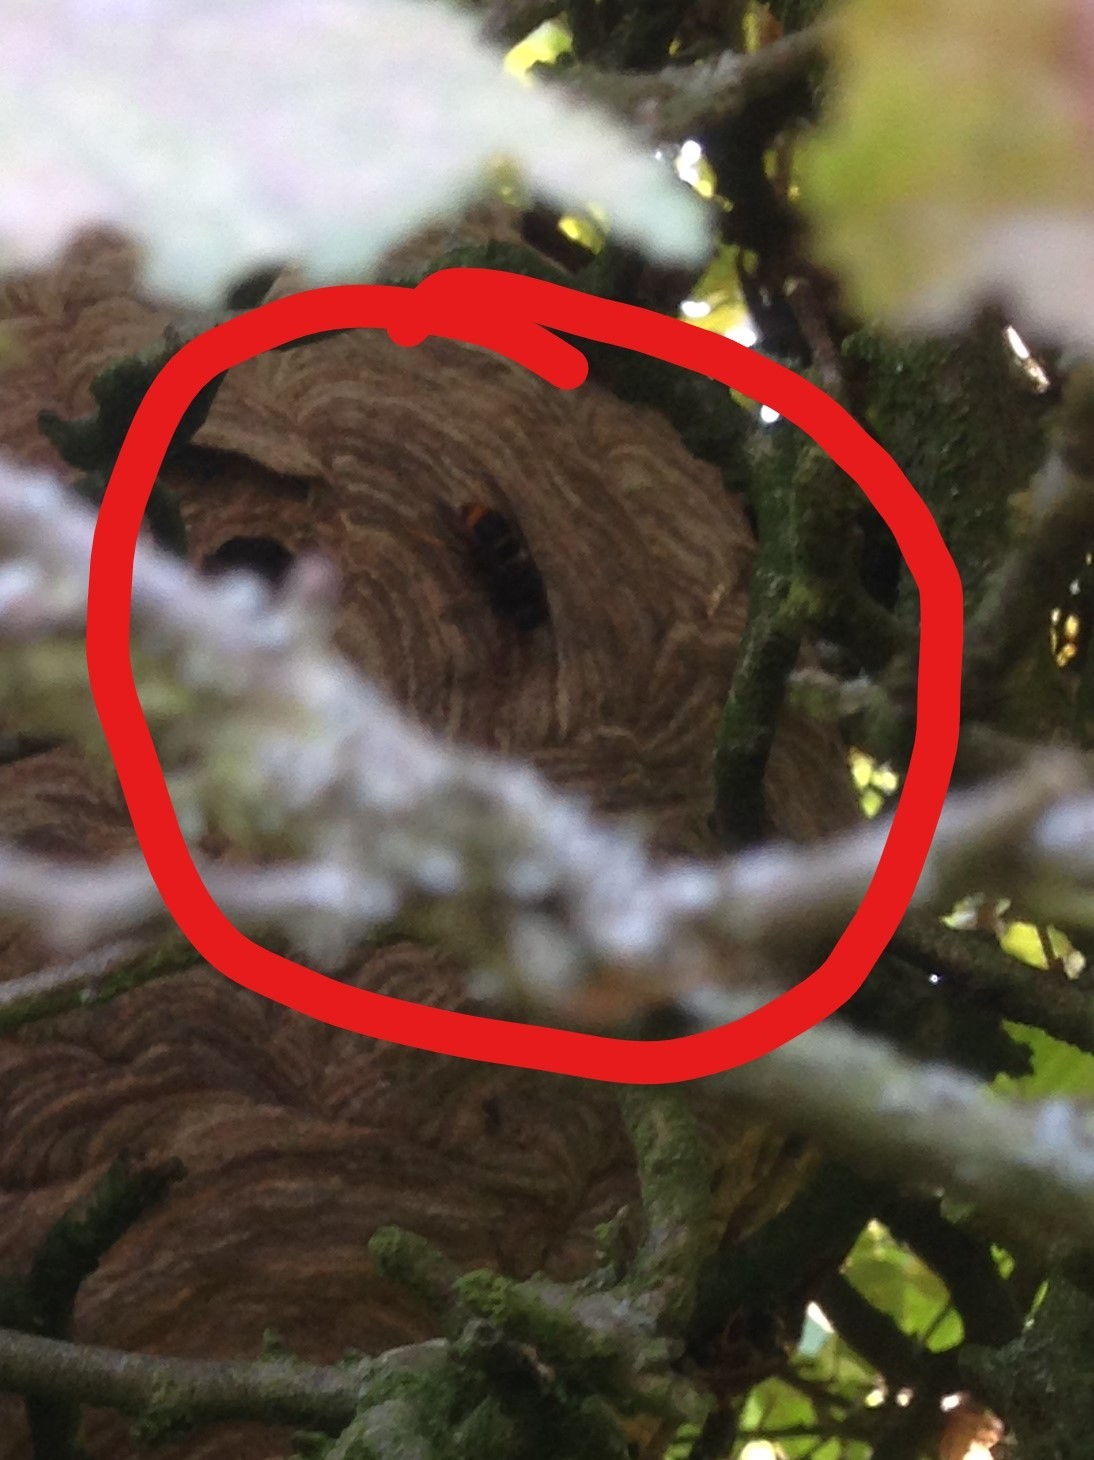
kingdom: Animalia
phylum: Arthropoda
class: Insecta
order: Hymenoptera
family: Vespidae
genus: Vespa
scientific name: Vespa velutina
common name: Asian hornet
